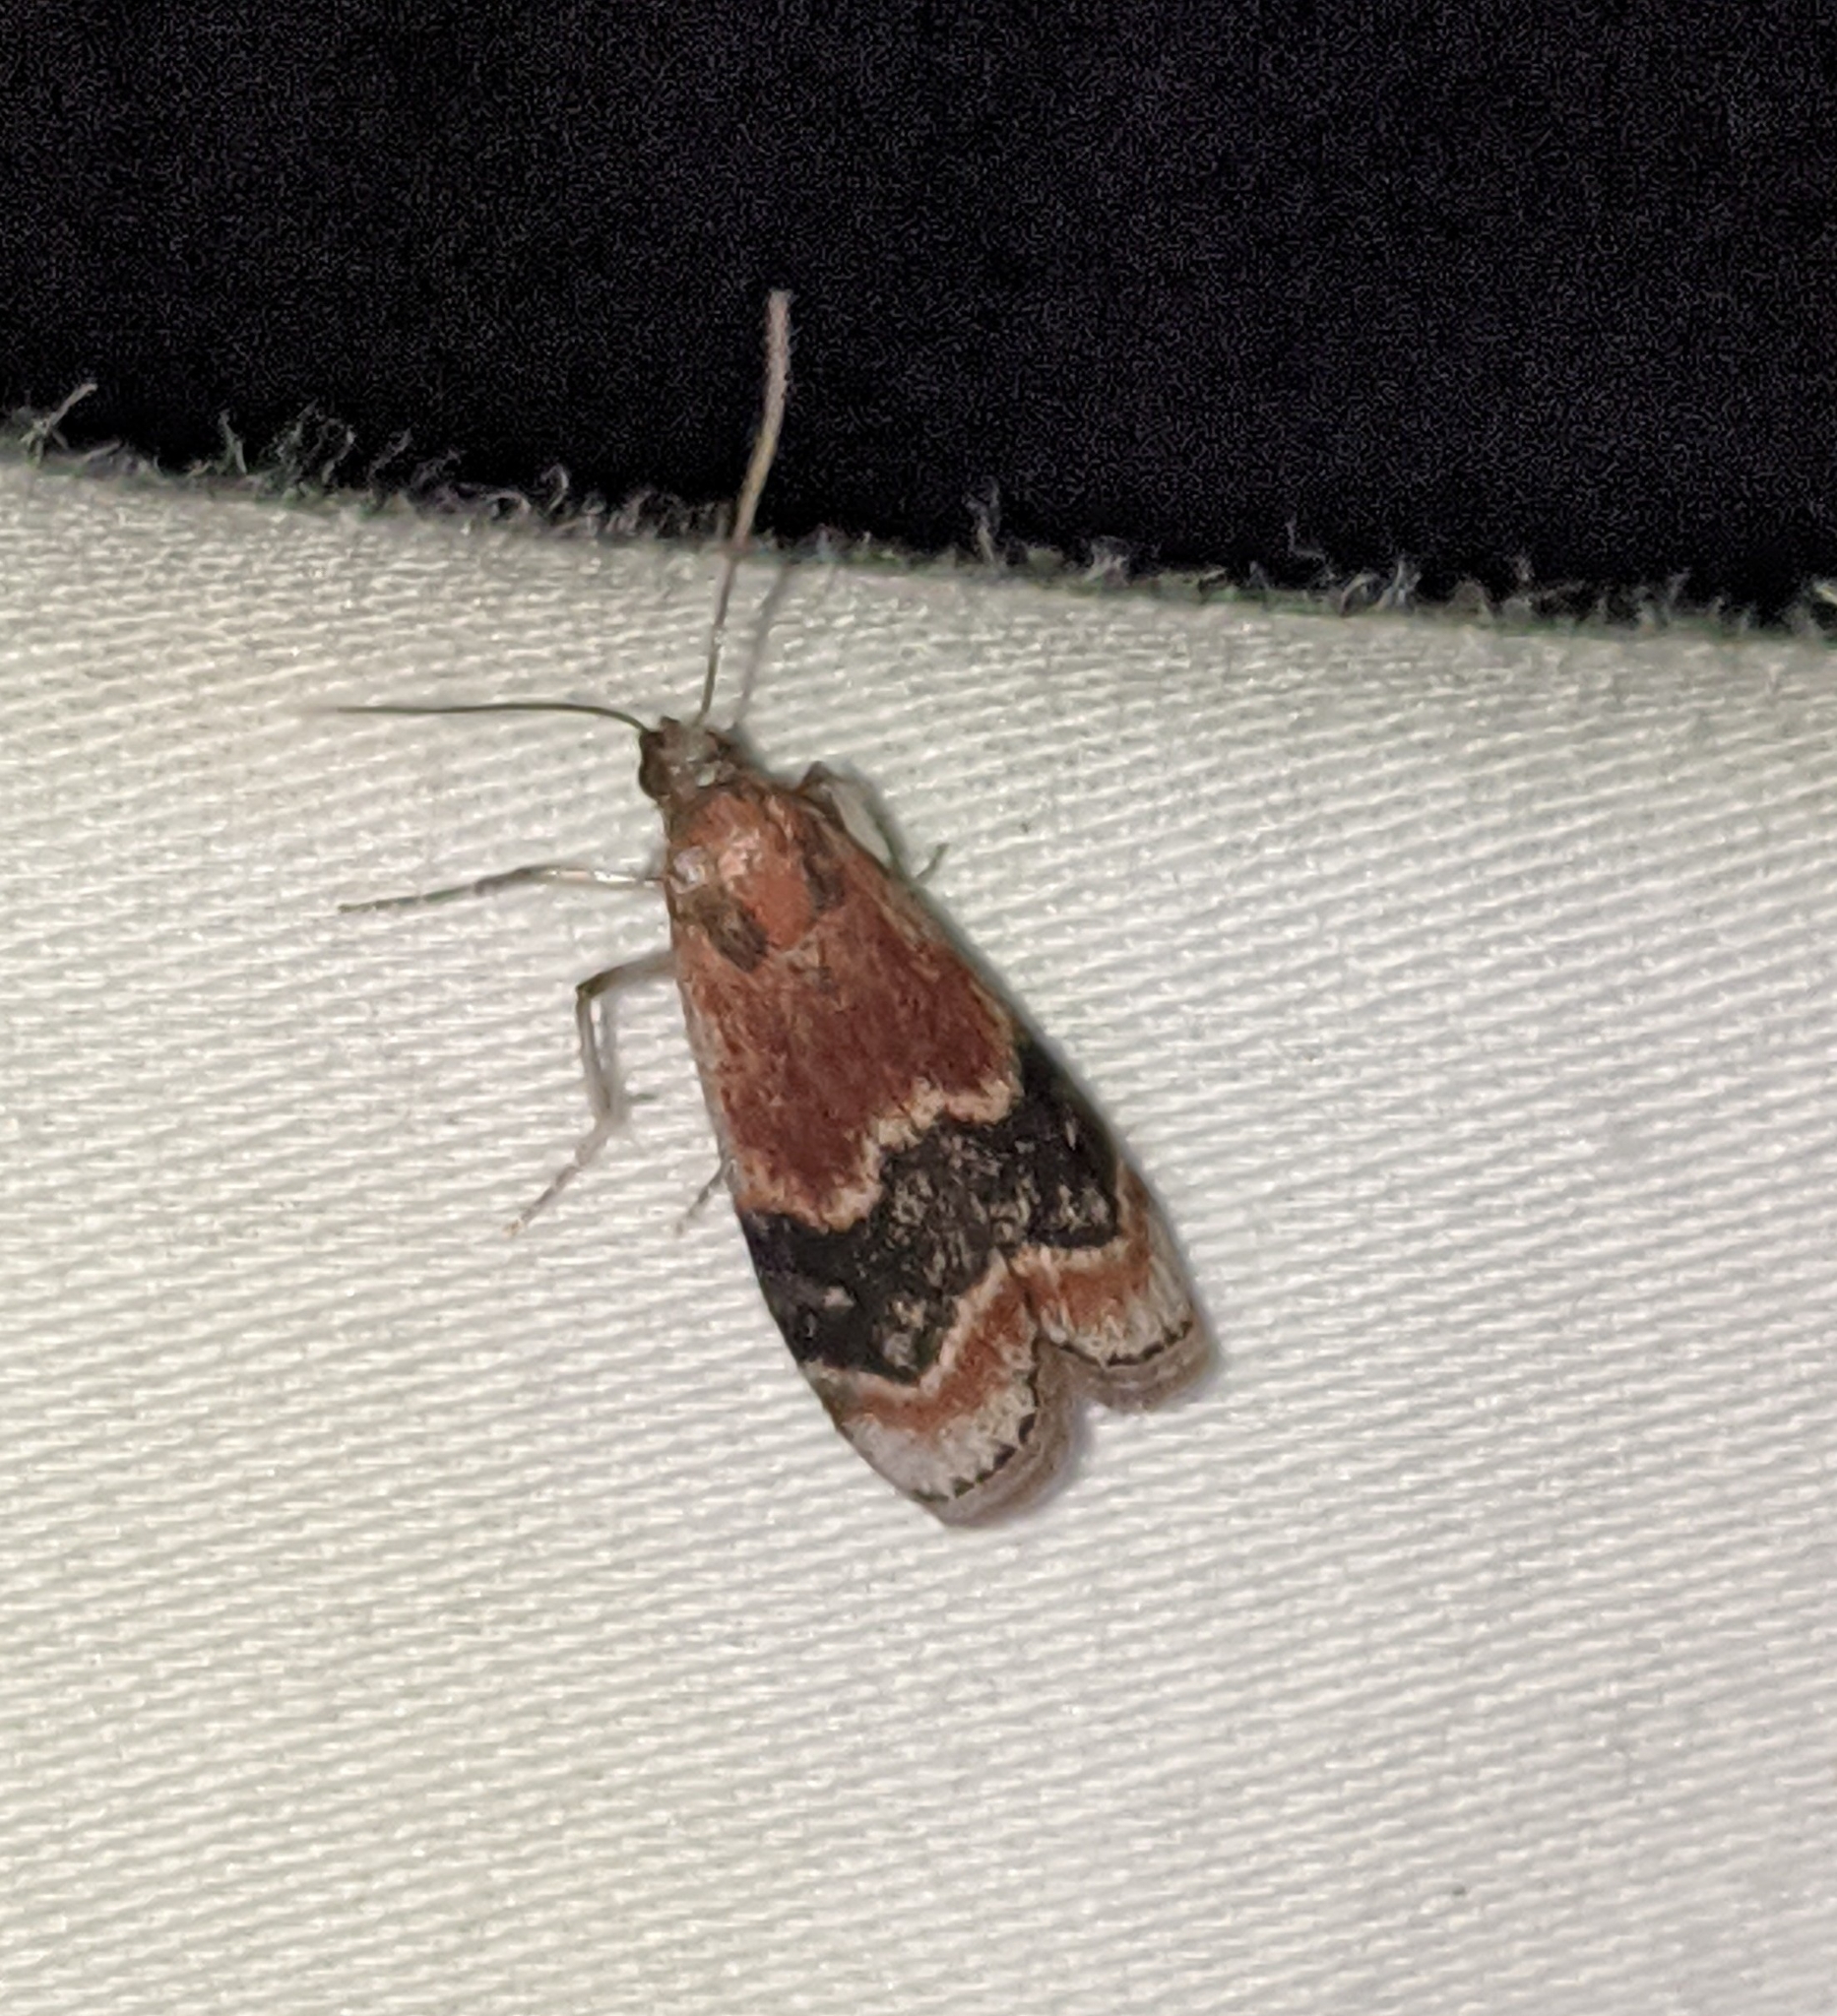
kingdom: Animalia
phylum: Arthropoda
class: Insecta
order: Lepidoptera
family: Pyralidae
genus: Euzophera
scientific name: Euzophera semifuneralis
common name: American plum borer moth
